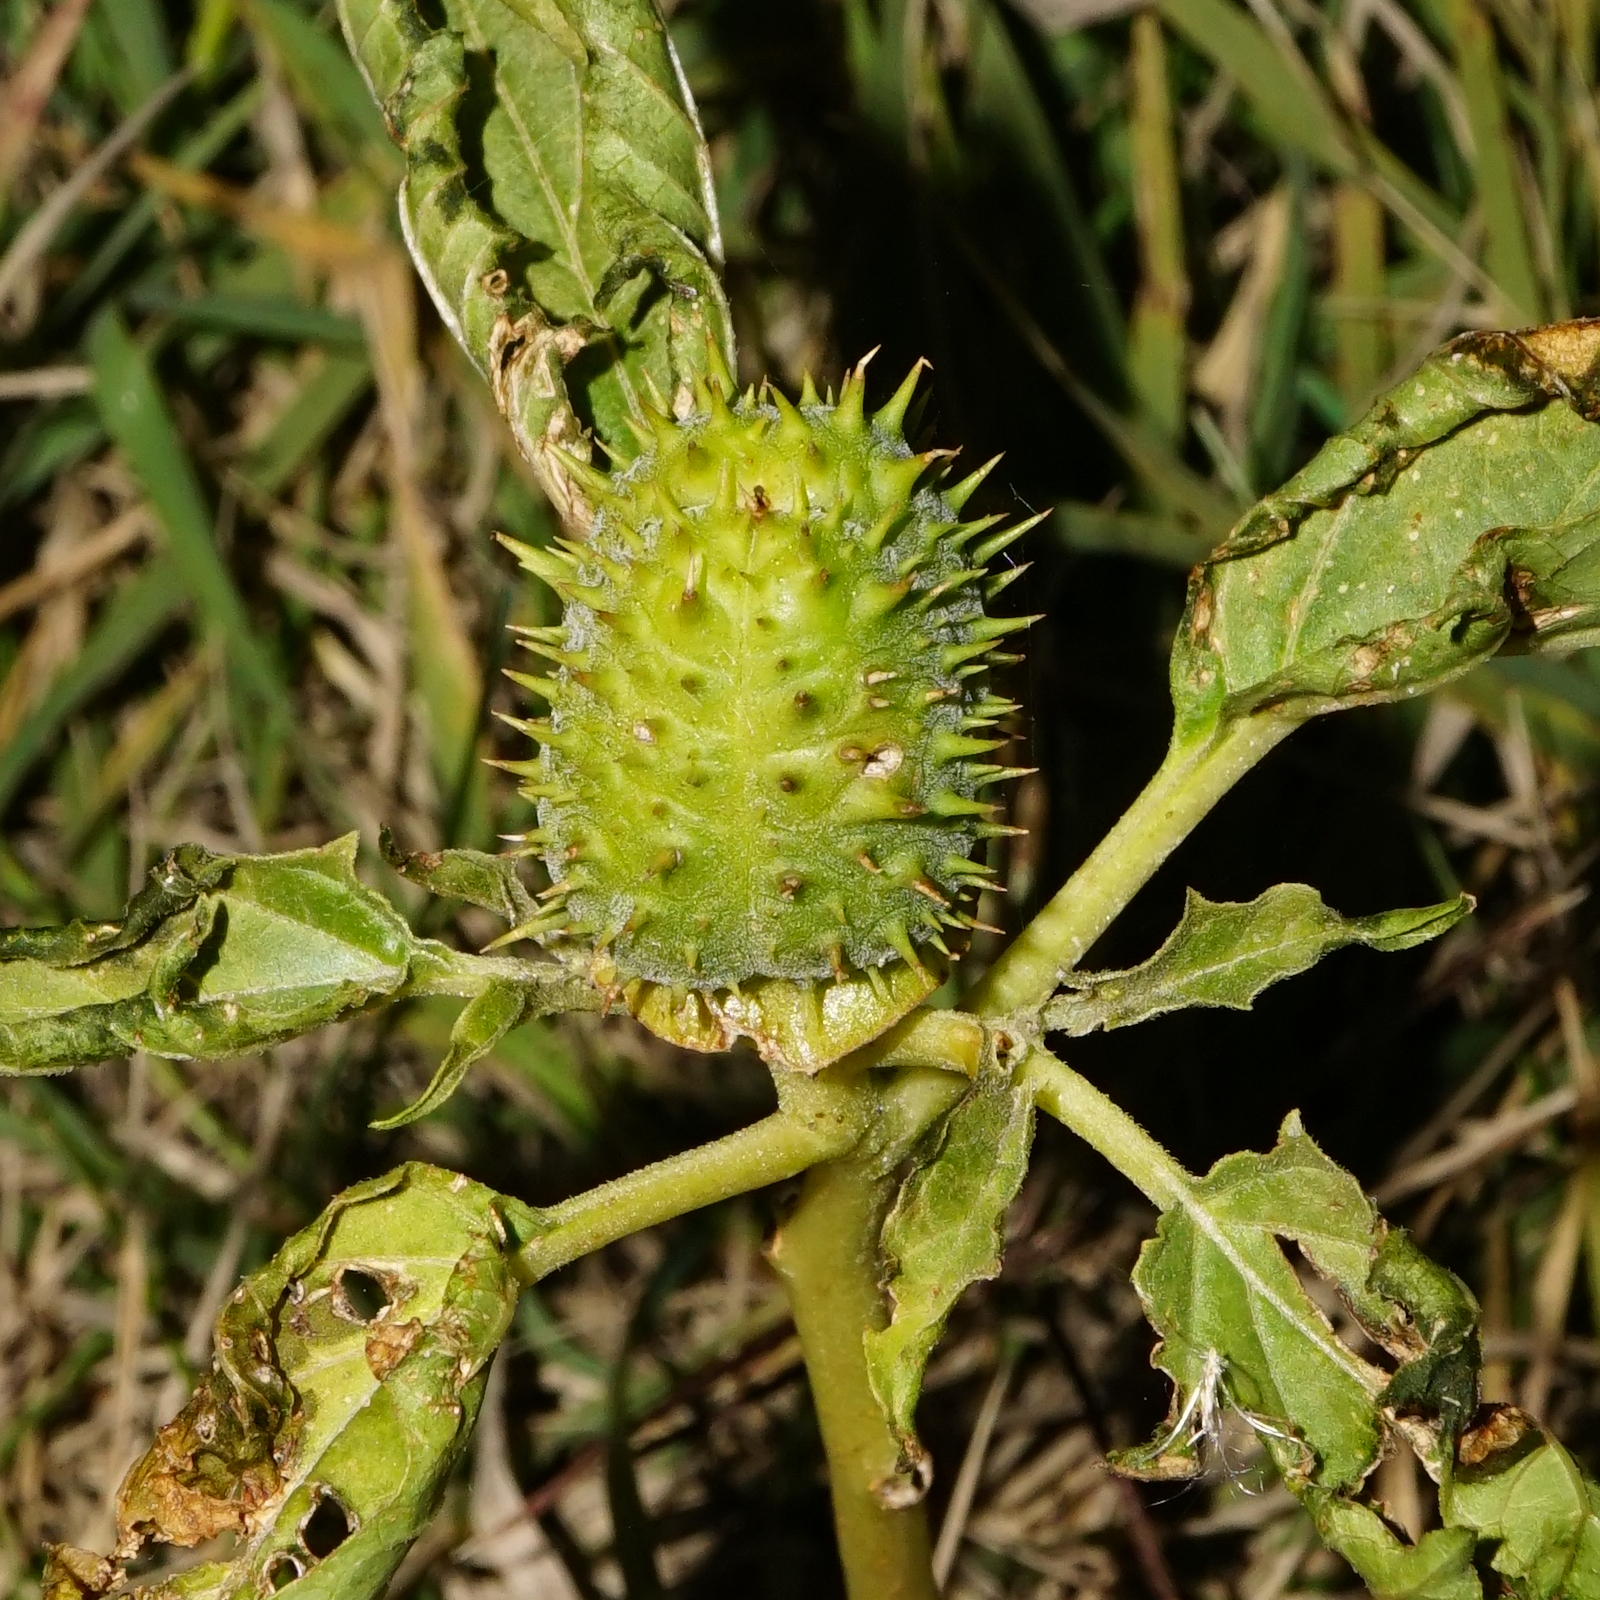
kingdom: Plantae
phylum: Tracheophyta
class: Magnoliopsida
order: Solanales
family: Solanaceae
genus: Datura
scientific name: Datura stramonium
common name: Thorn-apple
